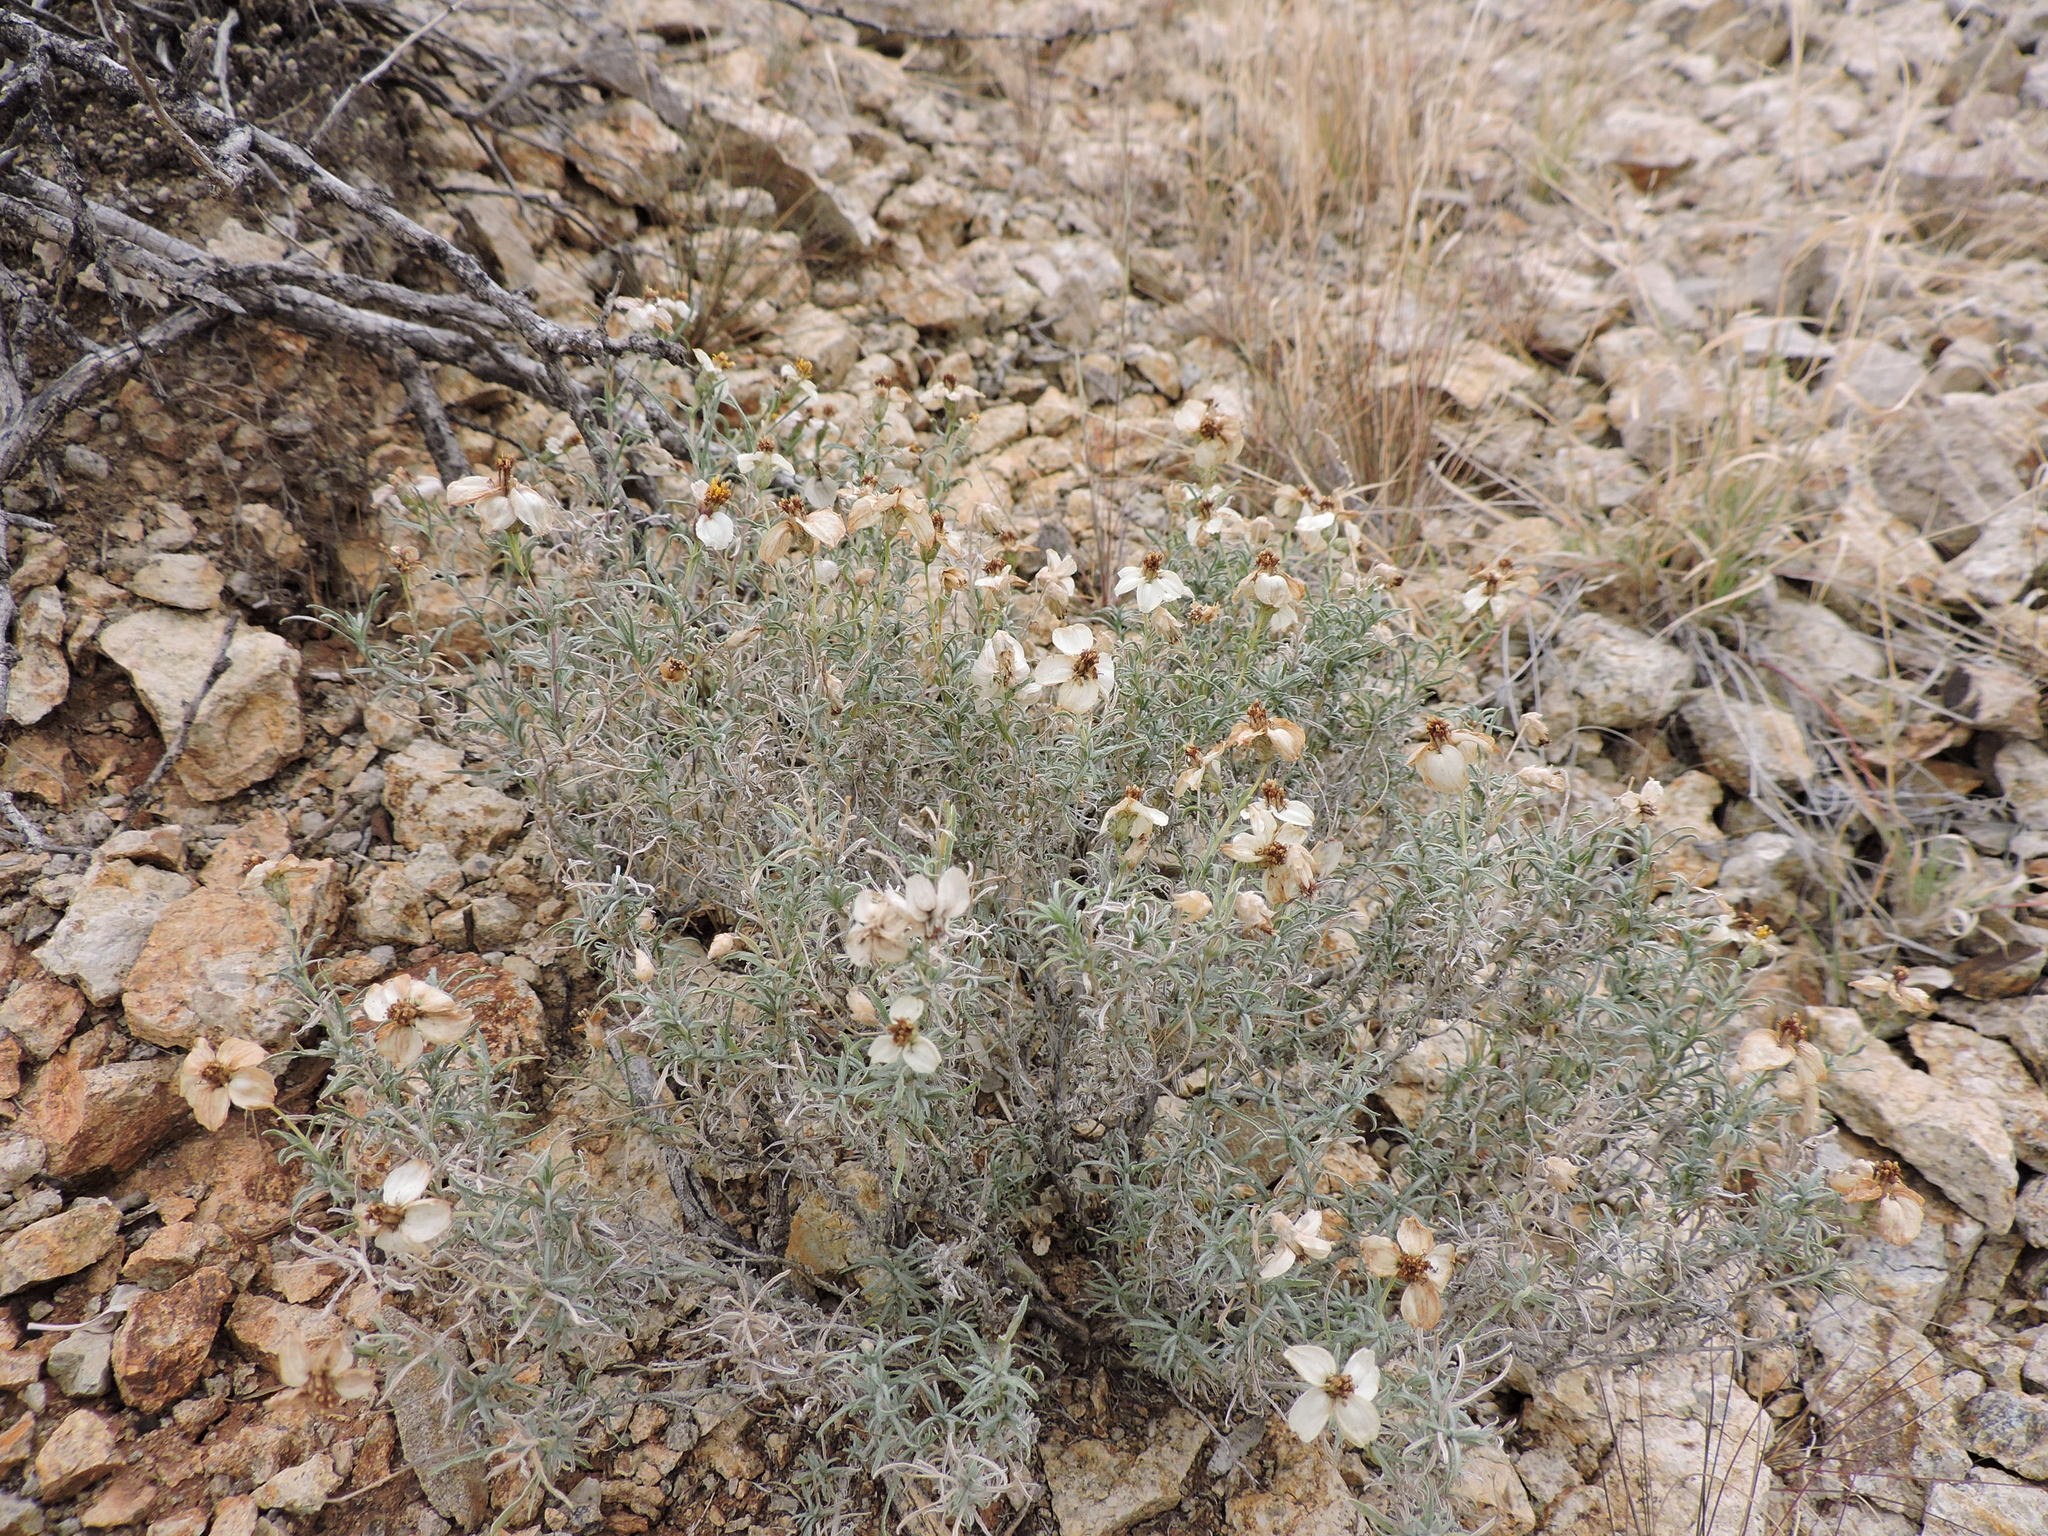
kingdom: Plantae
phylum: Tracheophyta
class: Magnoliopsida
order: Asterales
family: Asteraceae
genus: Zinnia
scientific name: Zinnia acerosa
